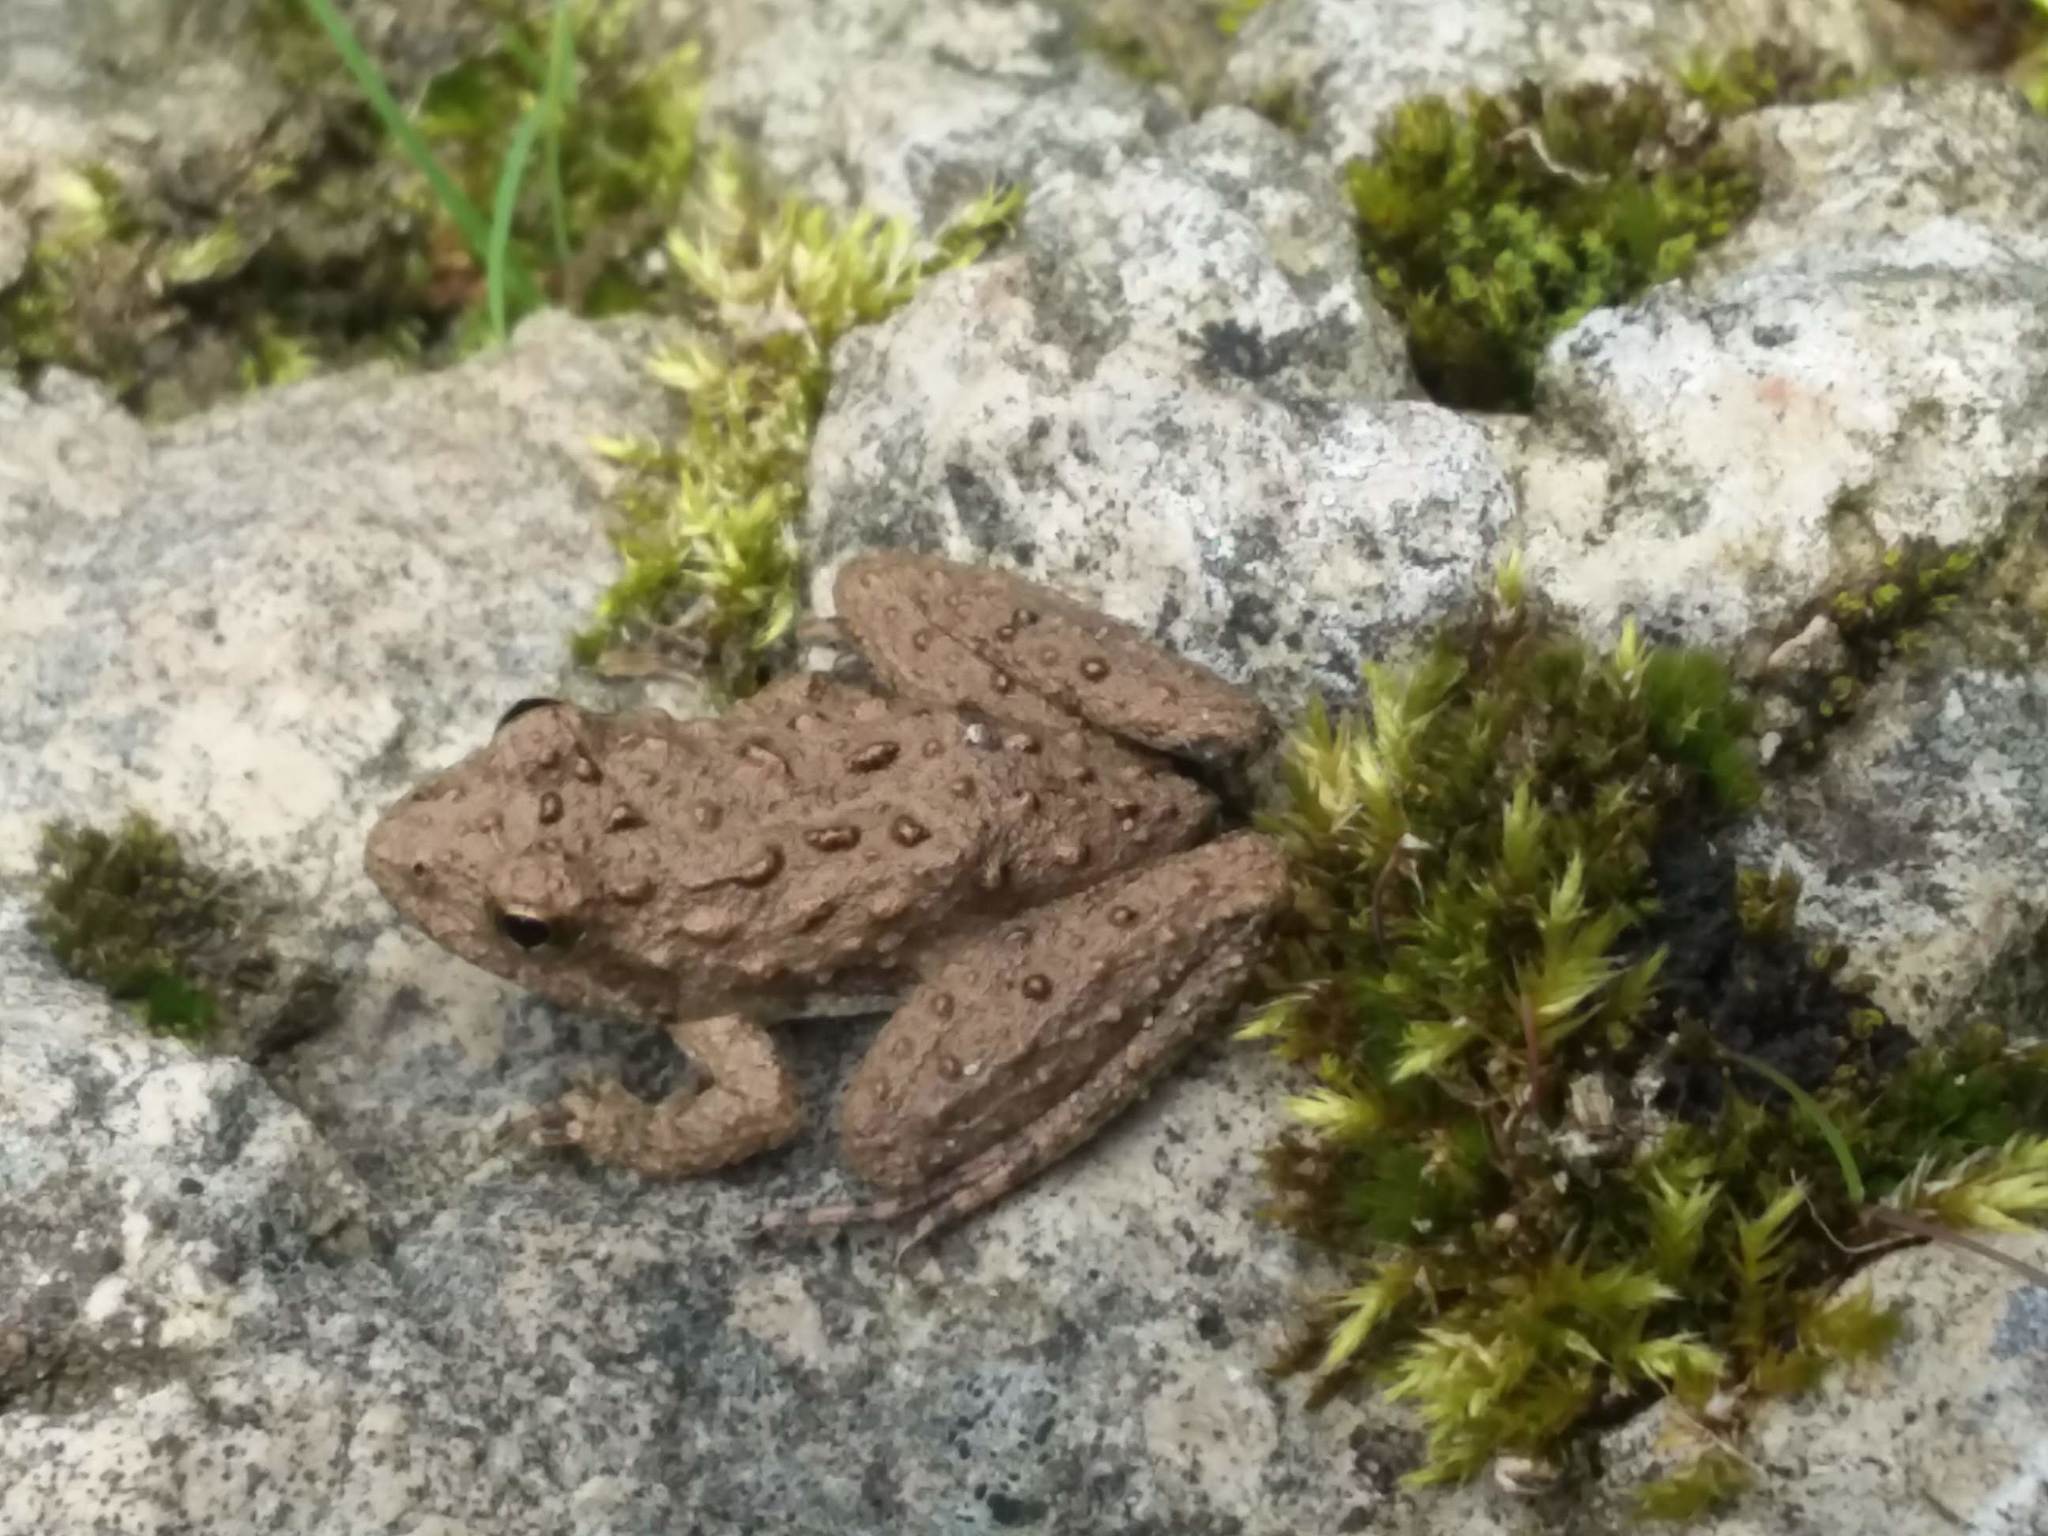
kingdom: Animalia
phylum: Chordata
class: Amphibia
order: Anura
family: Hylidae
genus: Acris
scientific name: Acris blanchardi
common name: Blanchard's cricket frog
